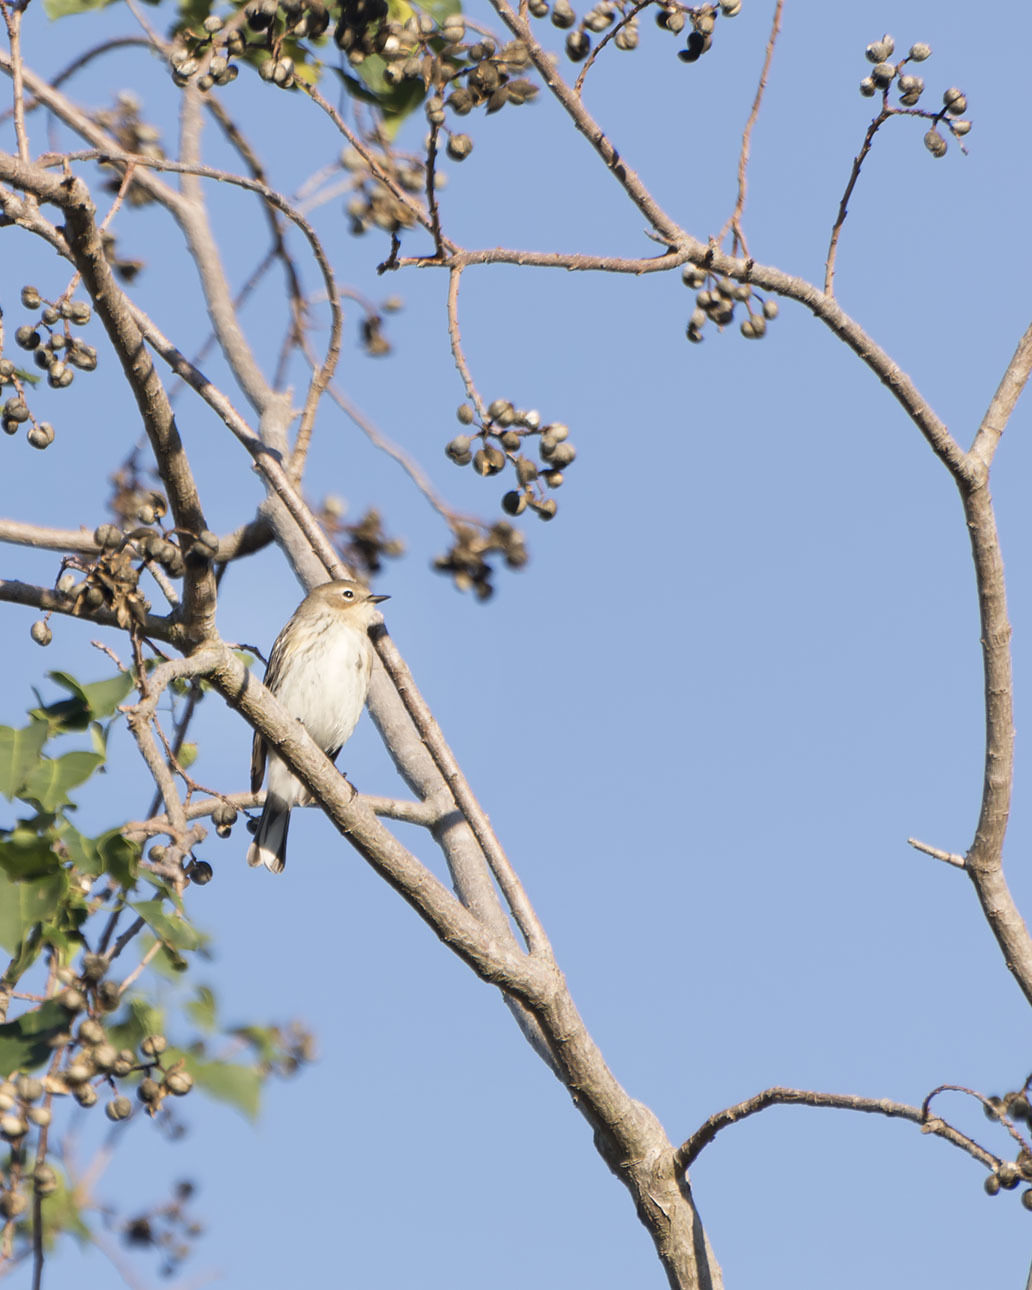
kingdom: Animalia
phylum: Chordata
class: Aves
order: Passeriformes
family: Parulidae
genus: Setophaga
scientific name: Setophaga coronata
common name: Myrtle warbler
